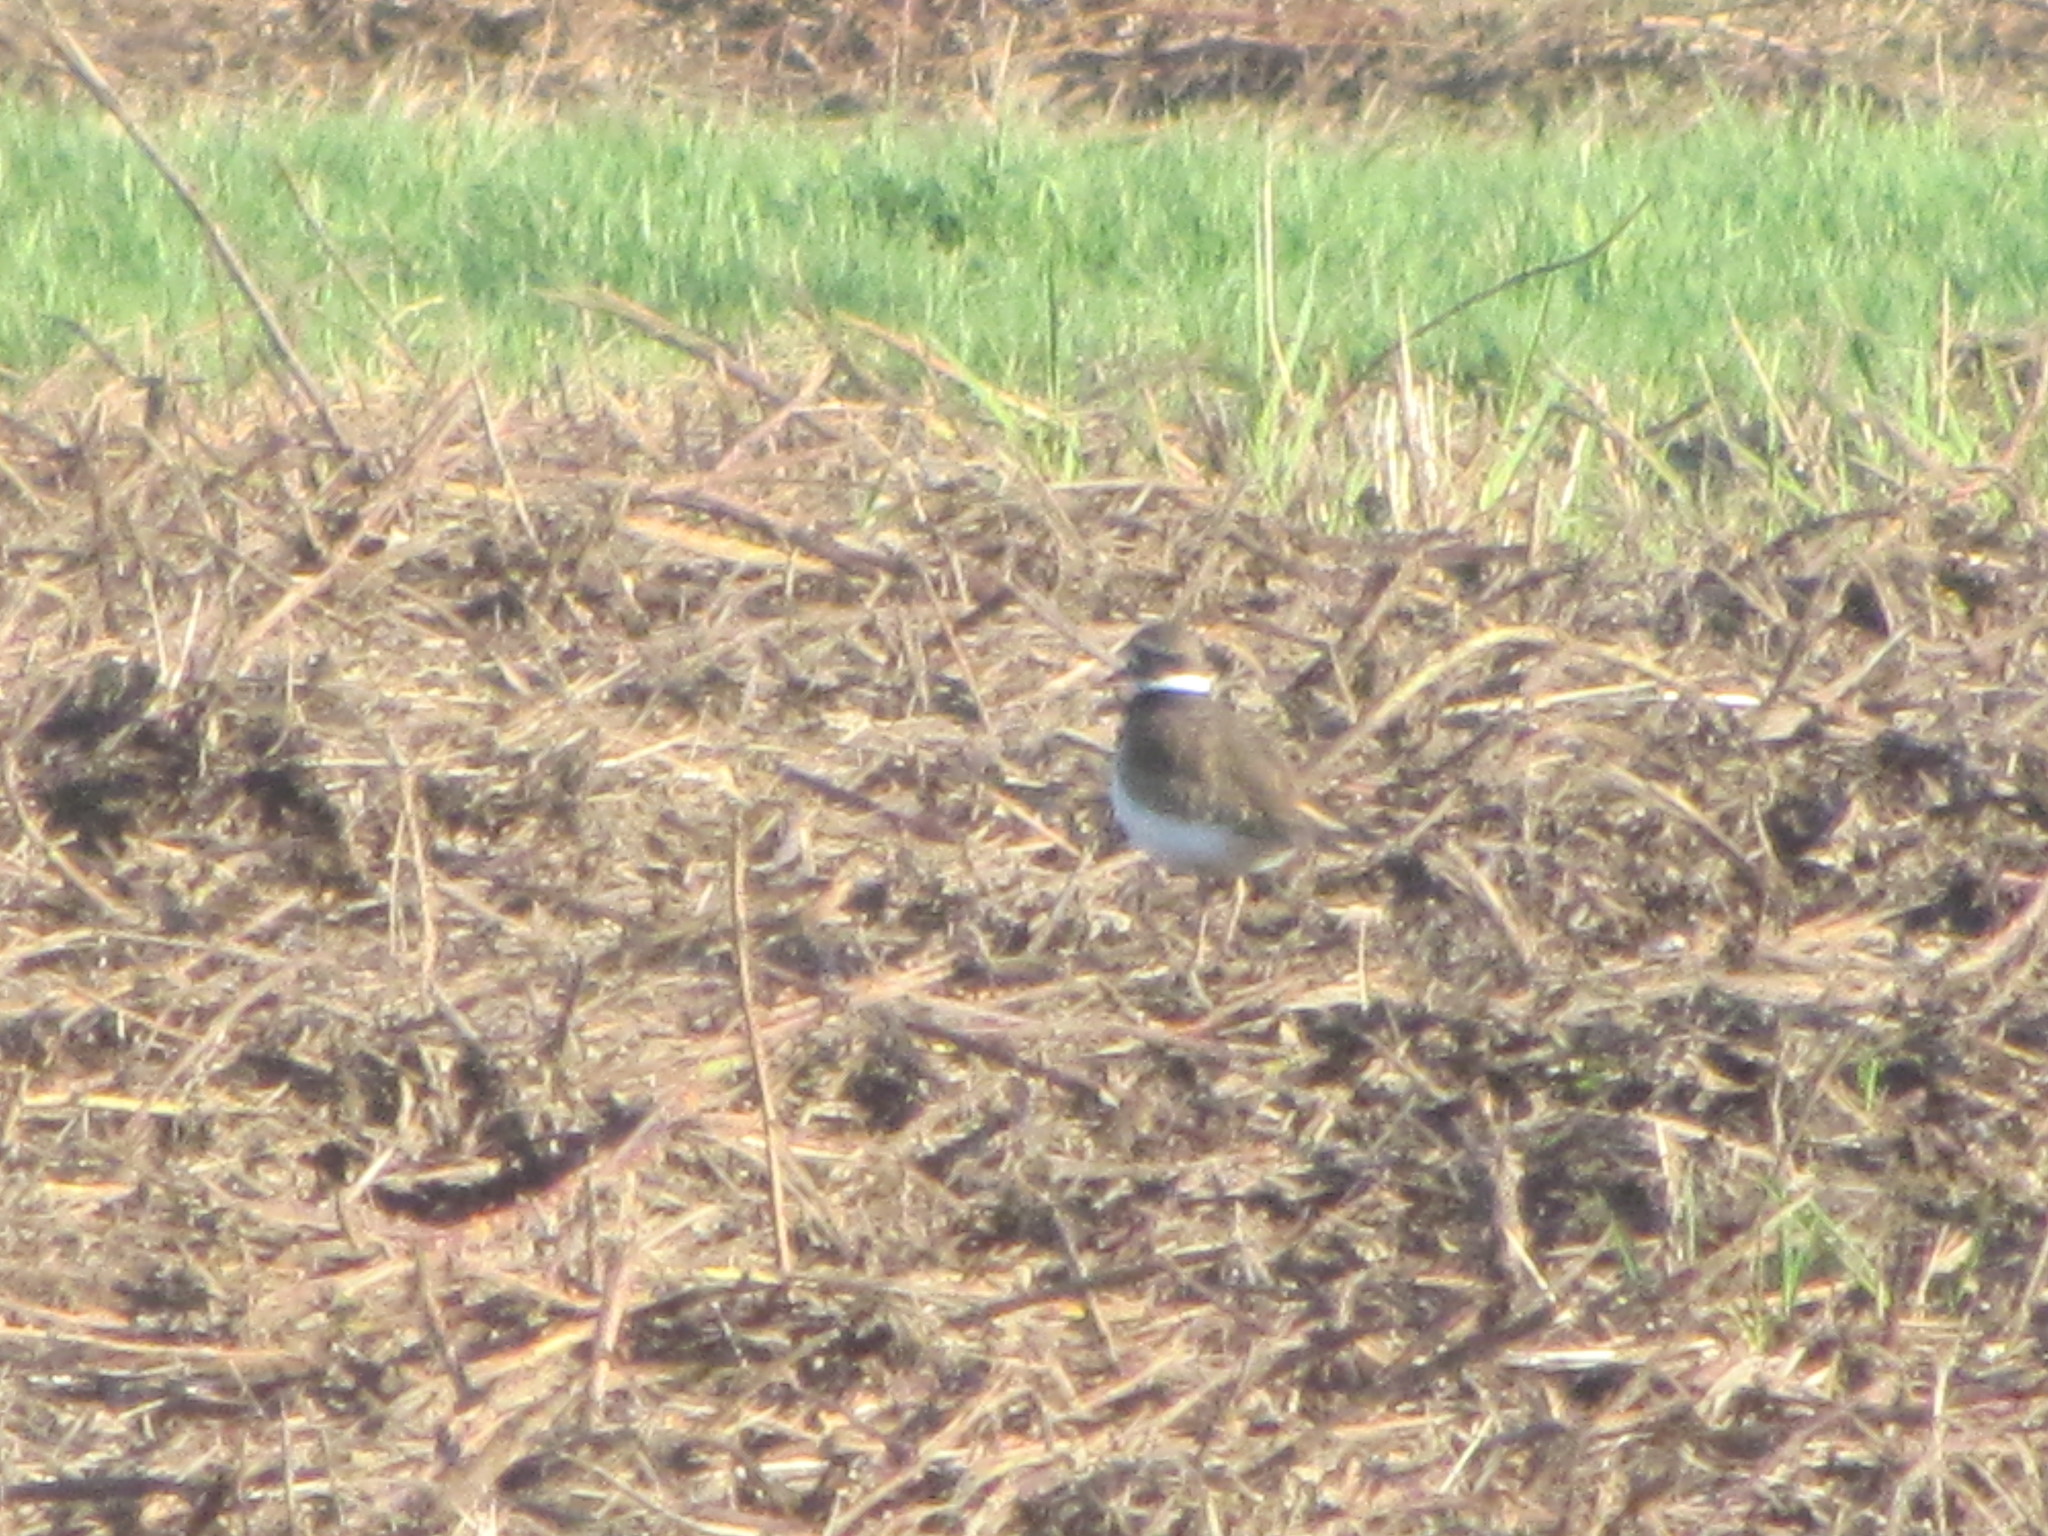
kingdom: Animalia
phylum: Chordata
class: Aves
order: Charadriiformes
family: Charadriidae
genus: Charadrius
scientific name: Charadrius vociferus
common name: Killdeer
